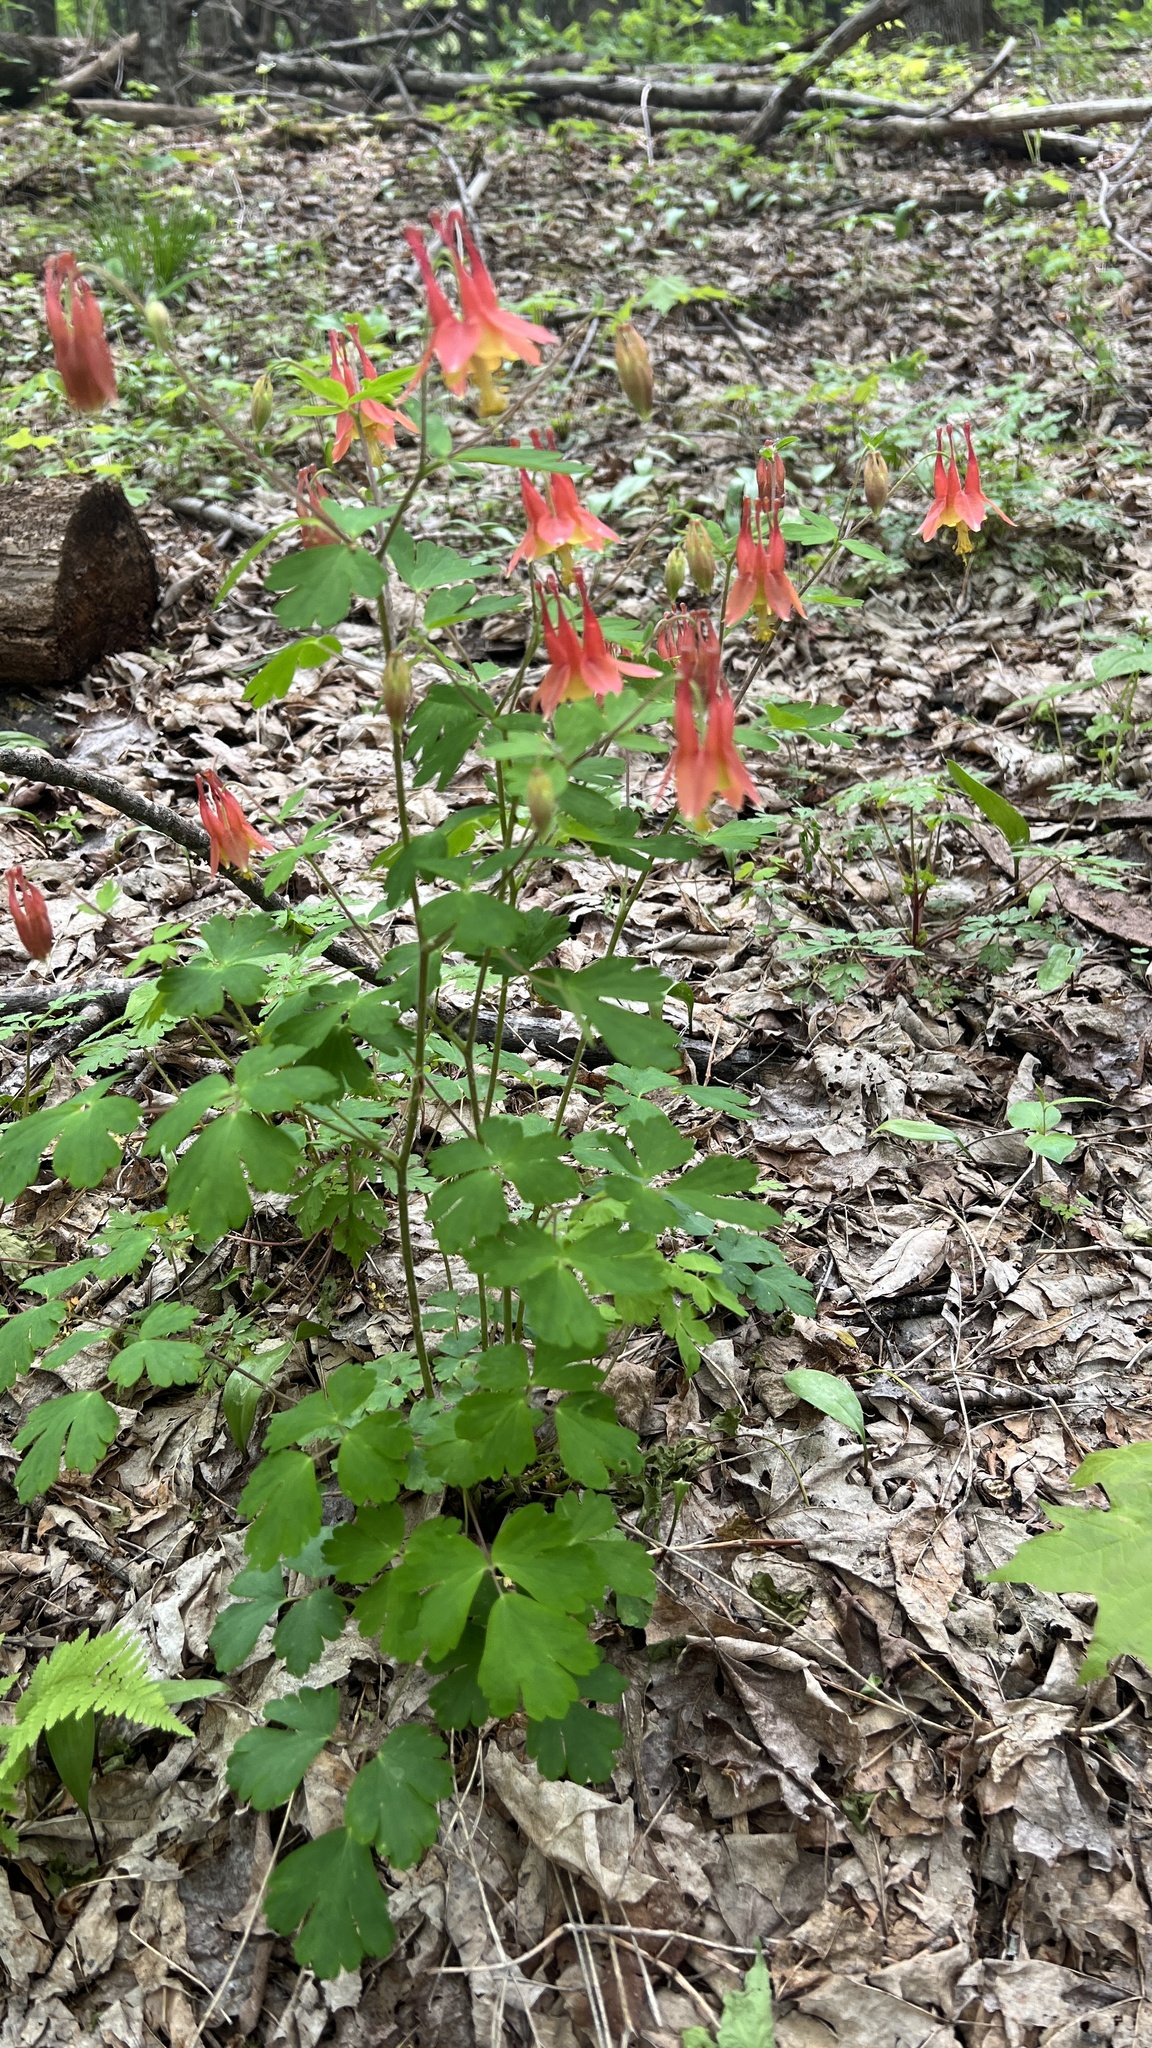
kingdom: Plantae
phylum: Tracheophyta
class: Magnoliopsida
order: Ranunculales
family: Ranunculaceae
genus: Aquilegia
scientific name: Aquilegia canadensis
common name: American columbine
